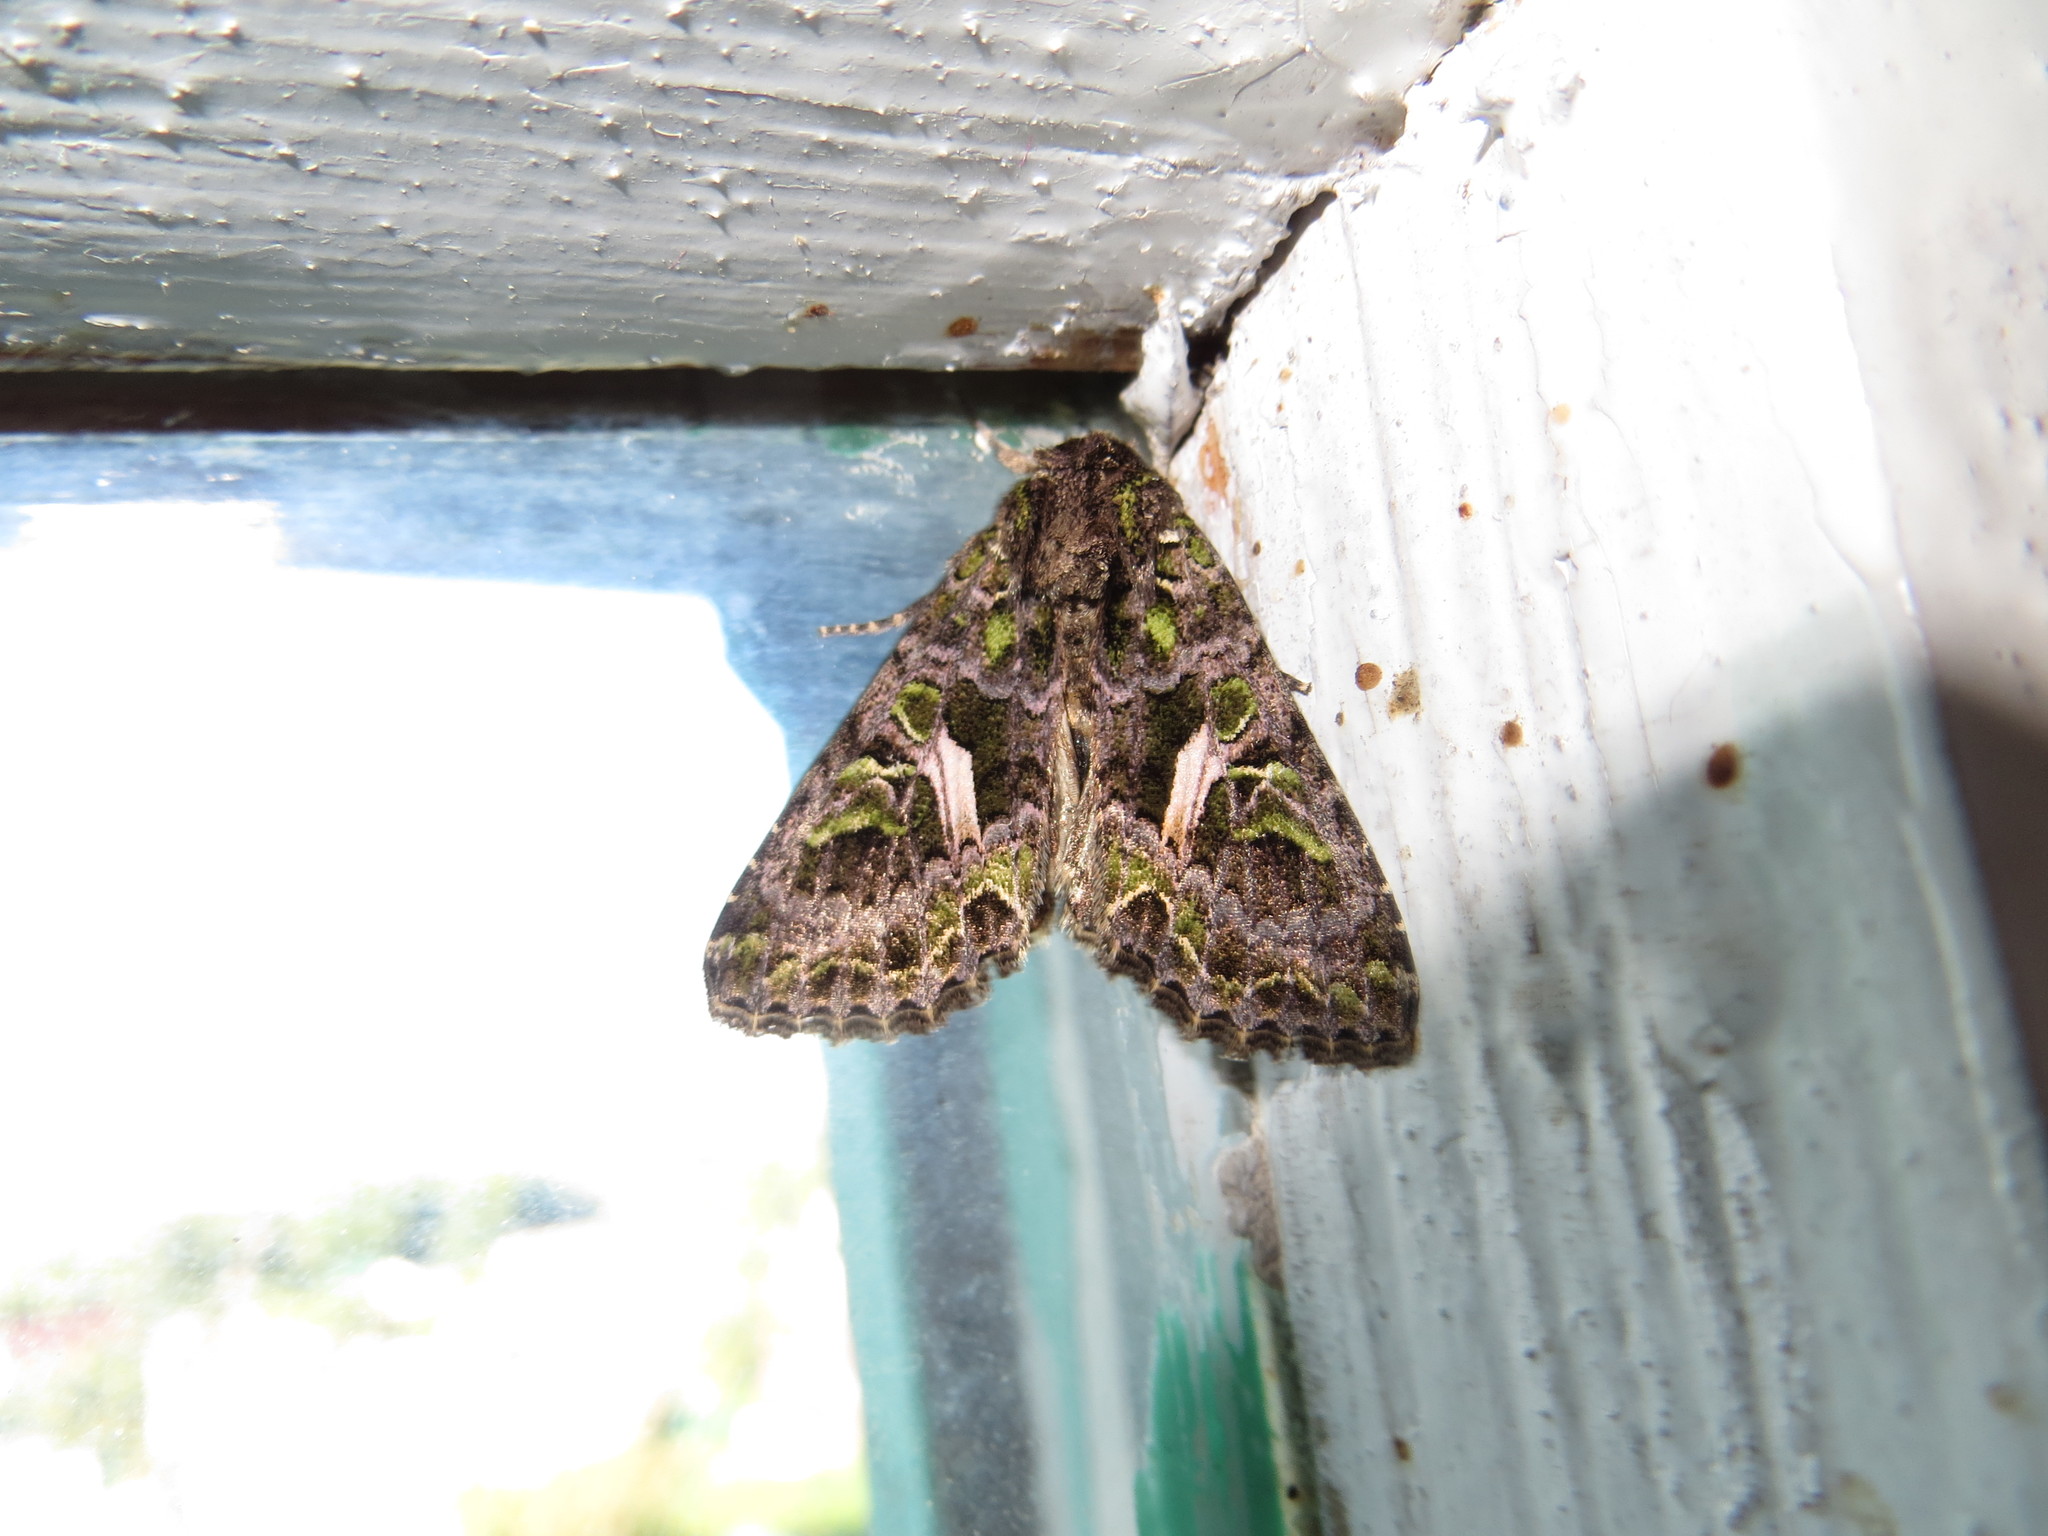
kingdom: Animalia
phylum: Arthropoda
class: Insecta
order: Lepidoptera
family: Noctuidae
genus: Trachea
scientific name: Trachea atriplicis
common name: Orache moth
